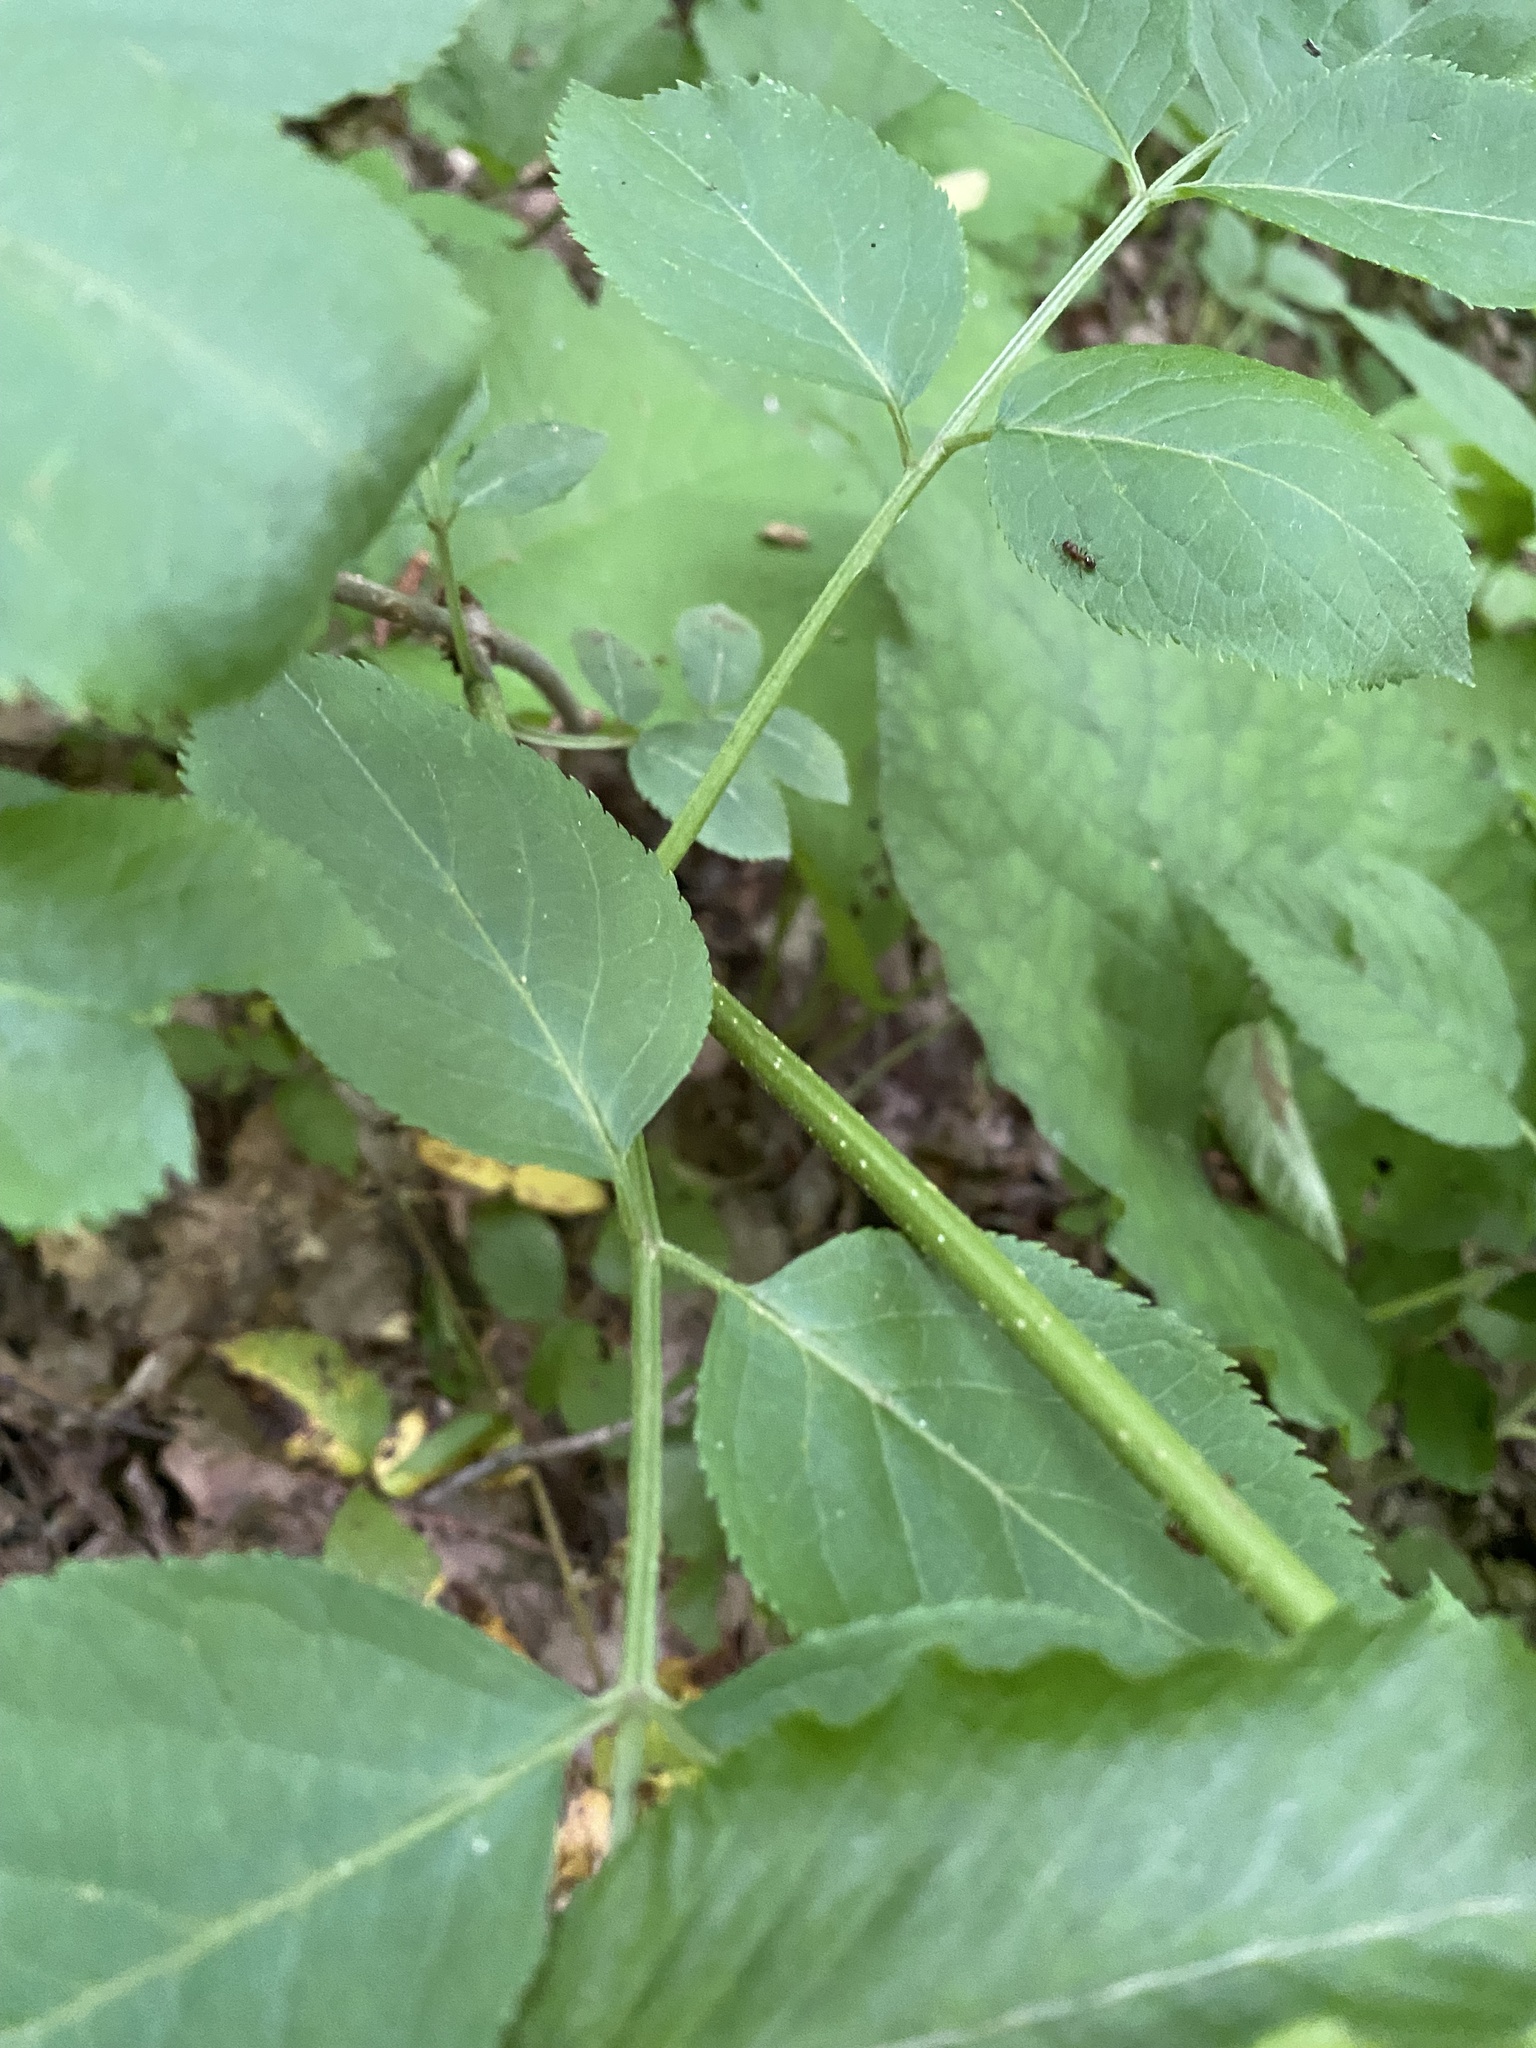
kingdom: Plantae
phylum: Tracheophyta
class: Magnoliopsida
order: Dipsacales
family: Viburnaceae
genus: Sambucus
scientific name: Sambucus nigra
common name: Elder
